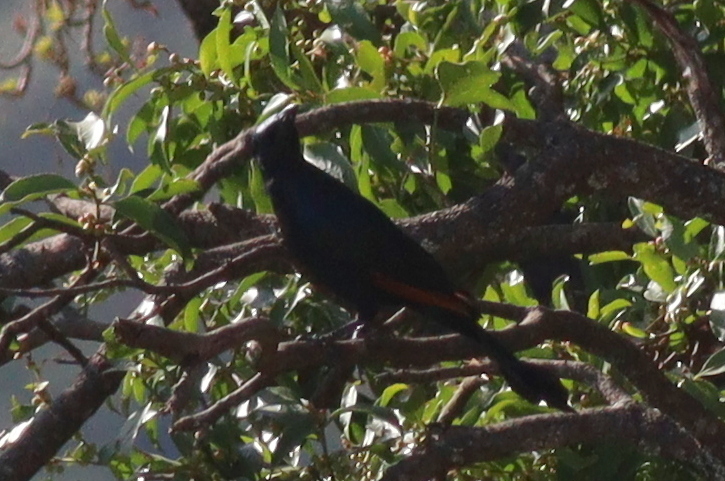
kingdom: Animalia
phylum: Chordata
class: Aves
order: Passeriformes
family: Sturnidae
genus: Onychognathus
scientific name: Onychognathus morio
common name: Red-winged starling
